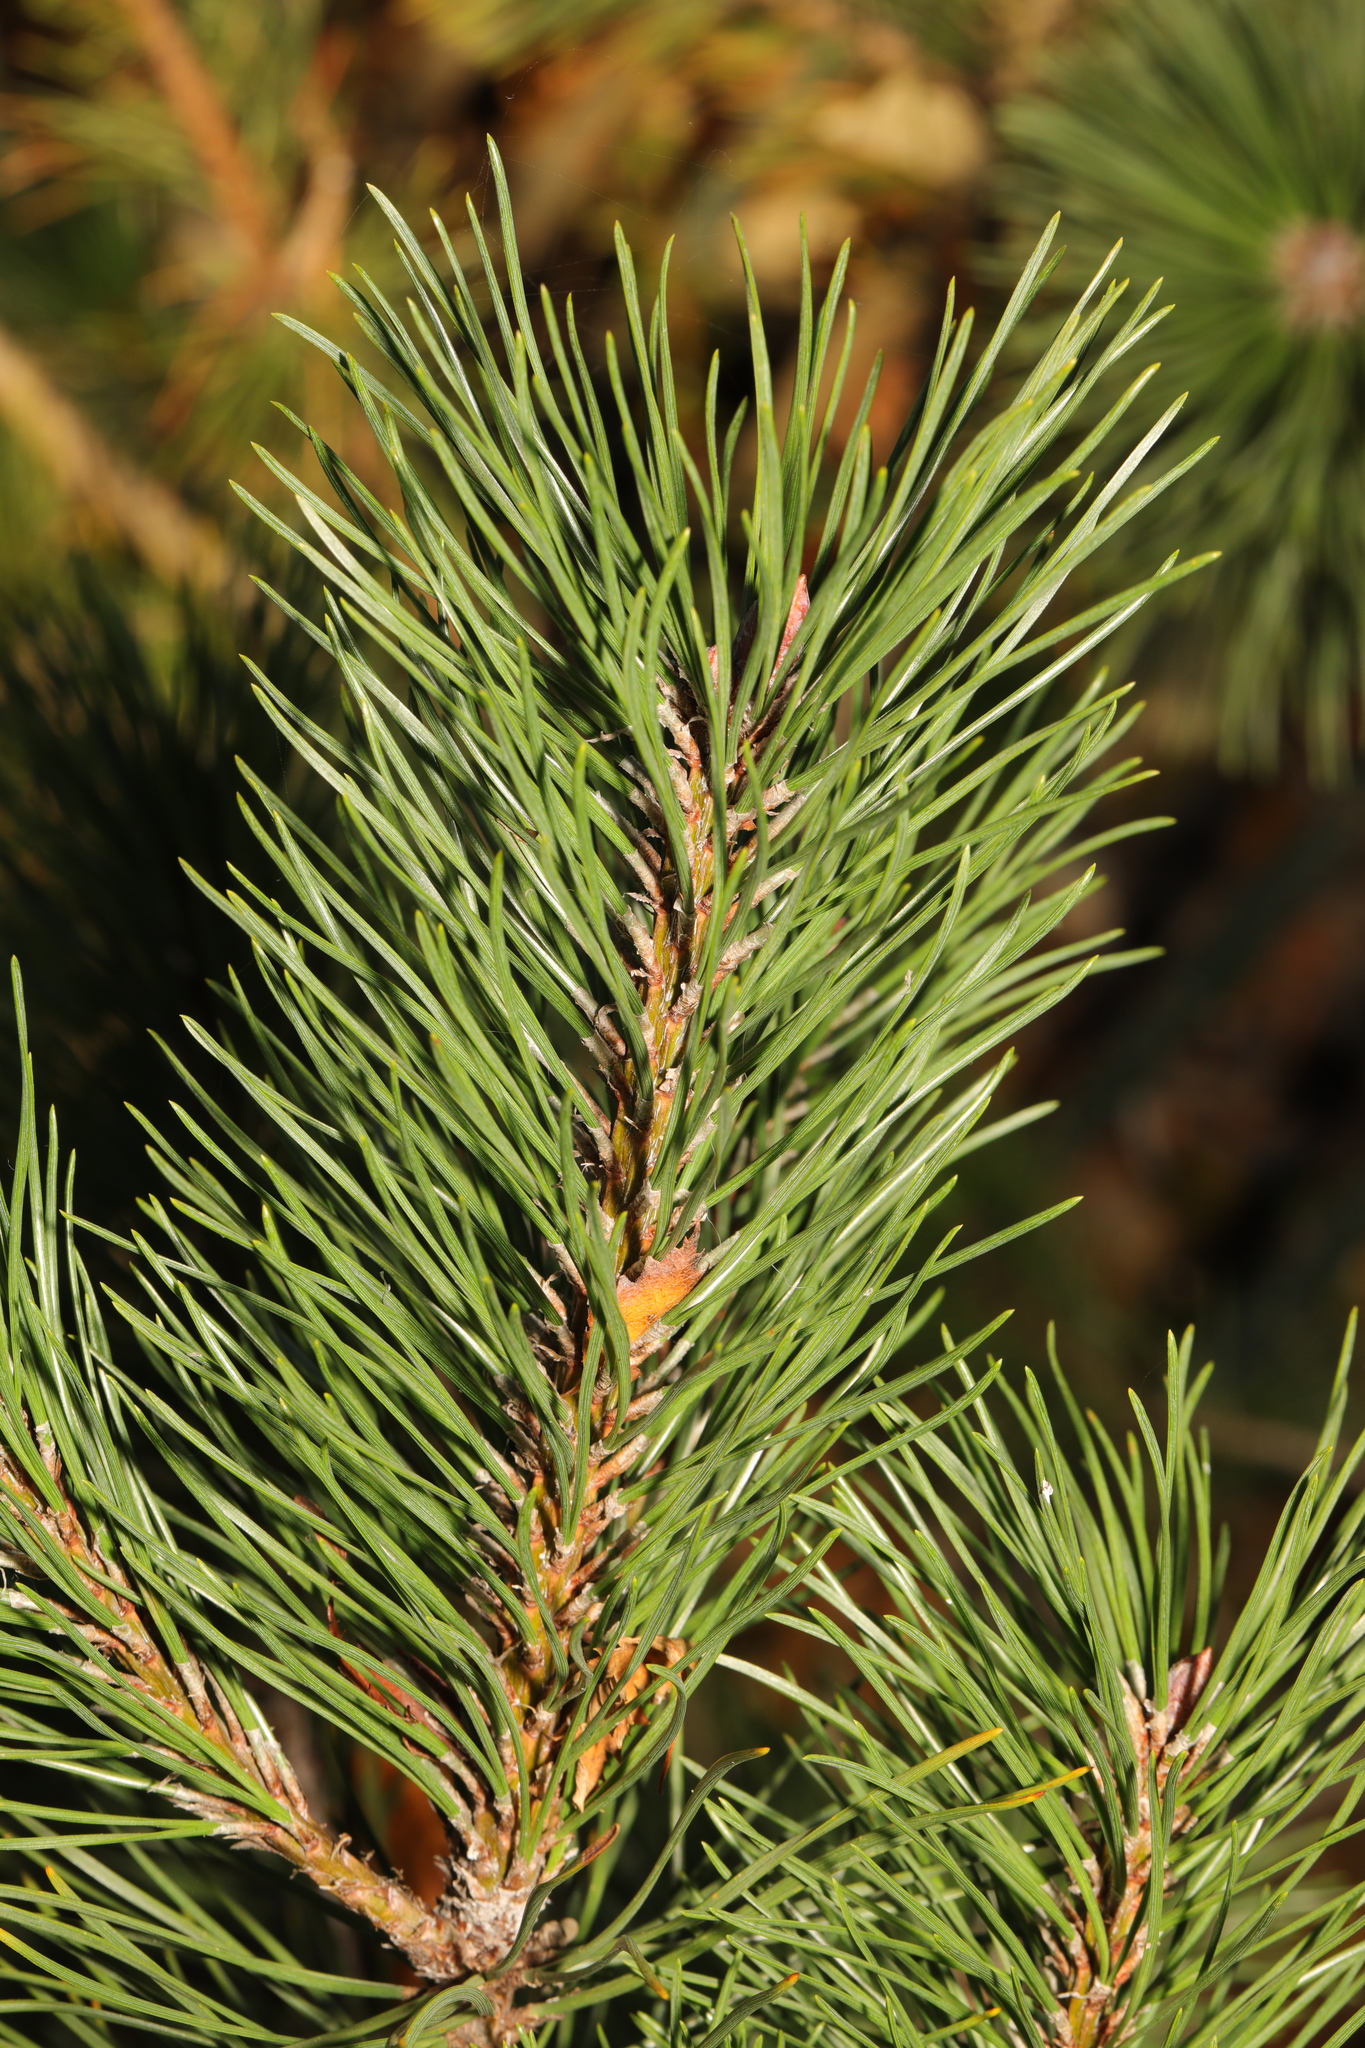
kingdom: Plantae
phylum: Tracheophyta
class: Pinopsida
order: Pinales
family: Pinaceae
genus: Pinus
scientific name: Pinus sylvestris
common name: Scots pine
